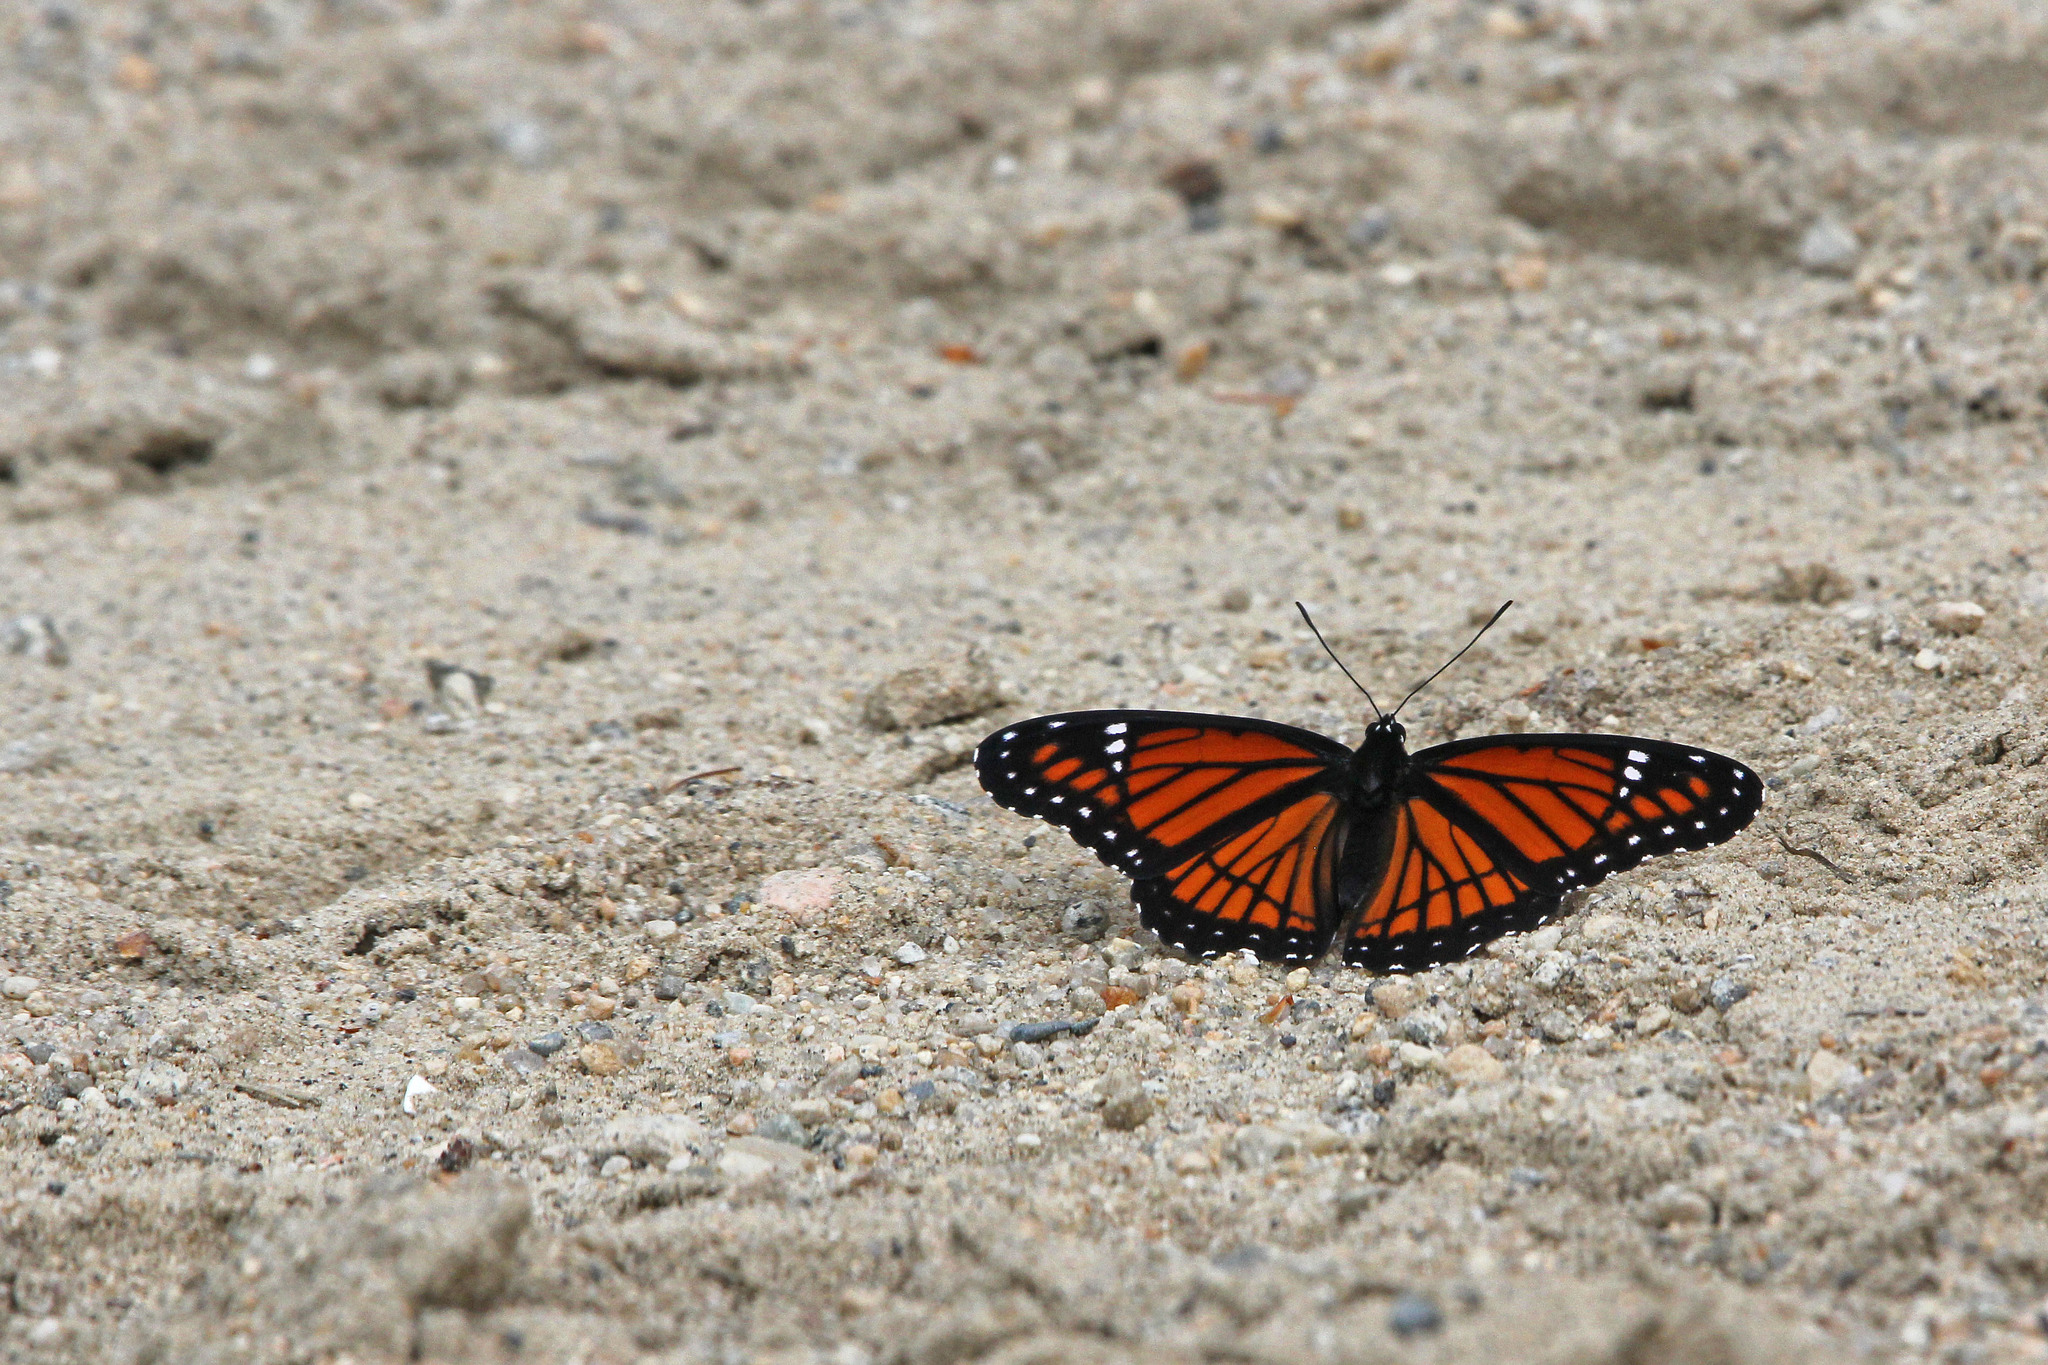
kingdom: Animalia
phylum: Arthropoda
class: Insecta
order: Lepidoptera
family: Nymphalidae
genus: Limenitis
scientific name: Limenitis archippus
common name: Viceroy
